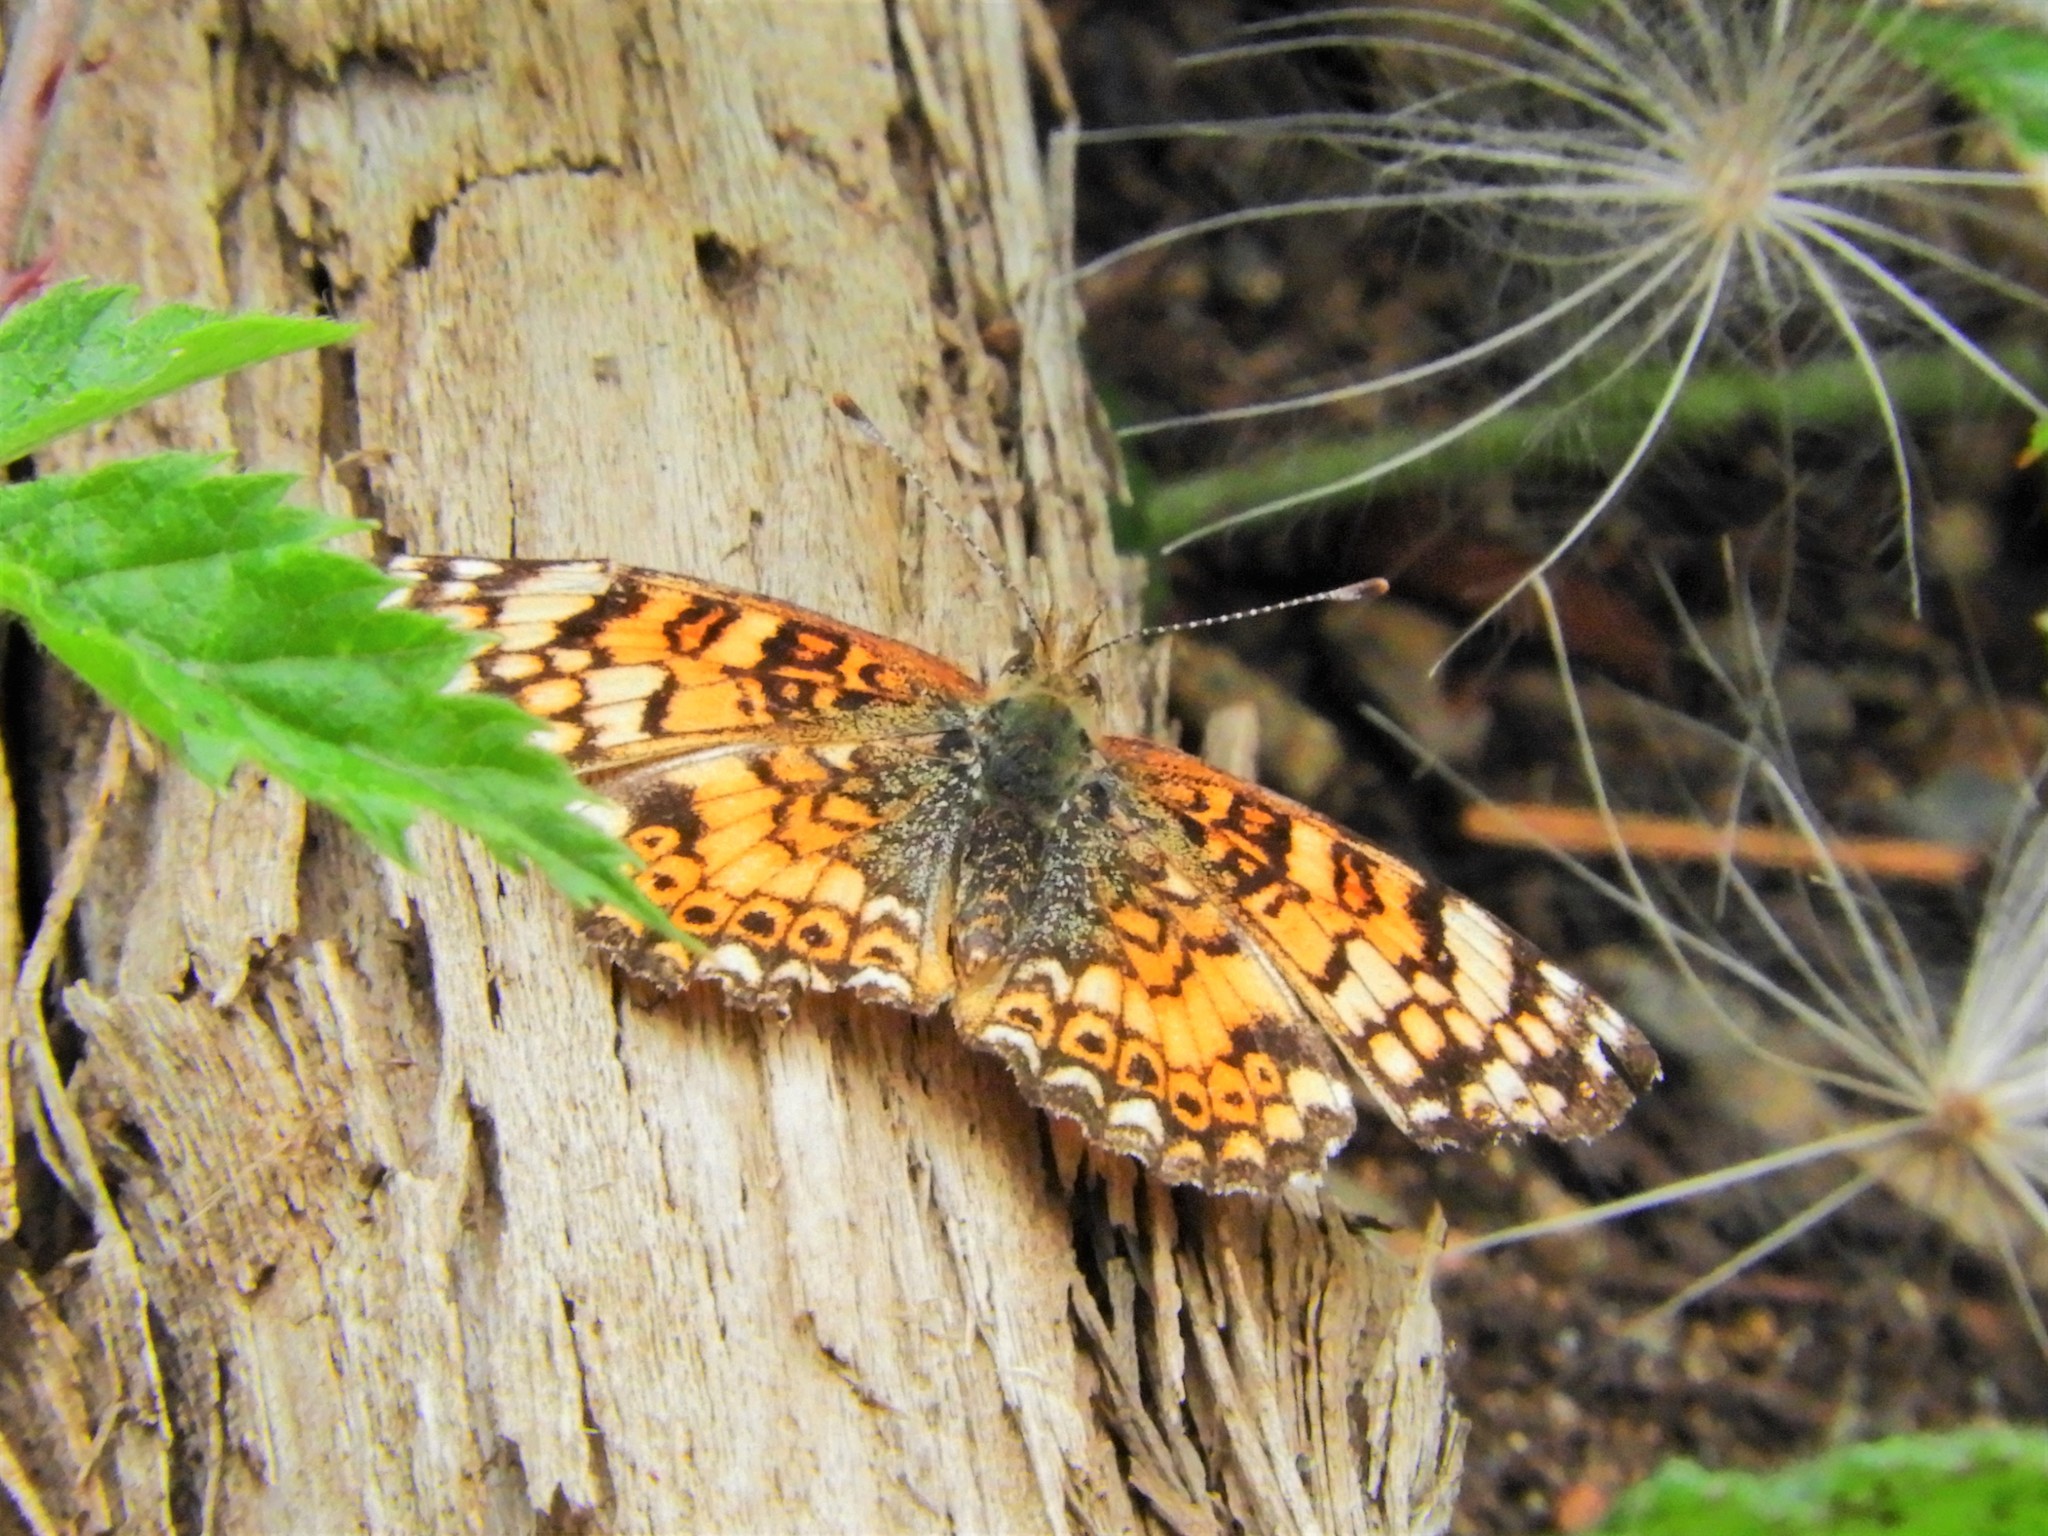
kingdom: Animalia
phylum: Arthropoda
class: Insecta
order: Lepidoptera
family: Nymphalidae
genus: Eresia
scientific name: Eresia aveyrona
